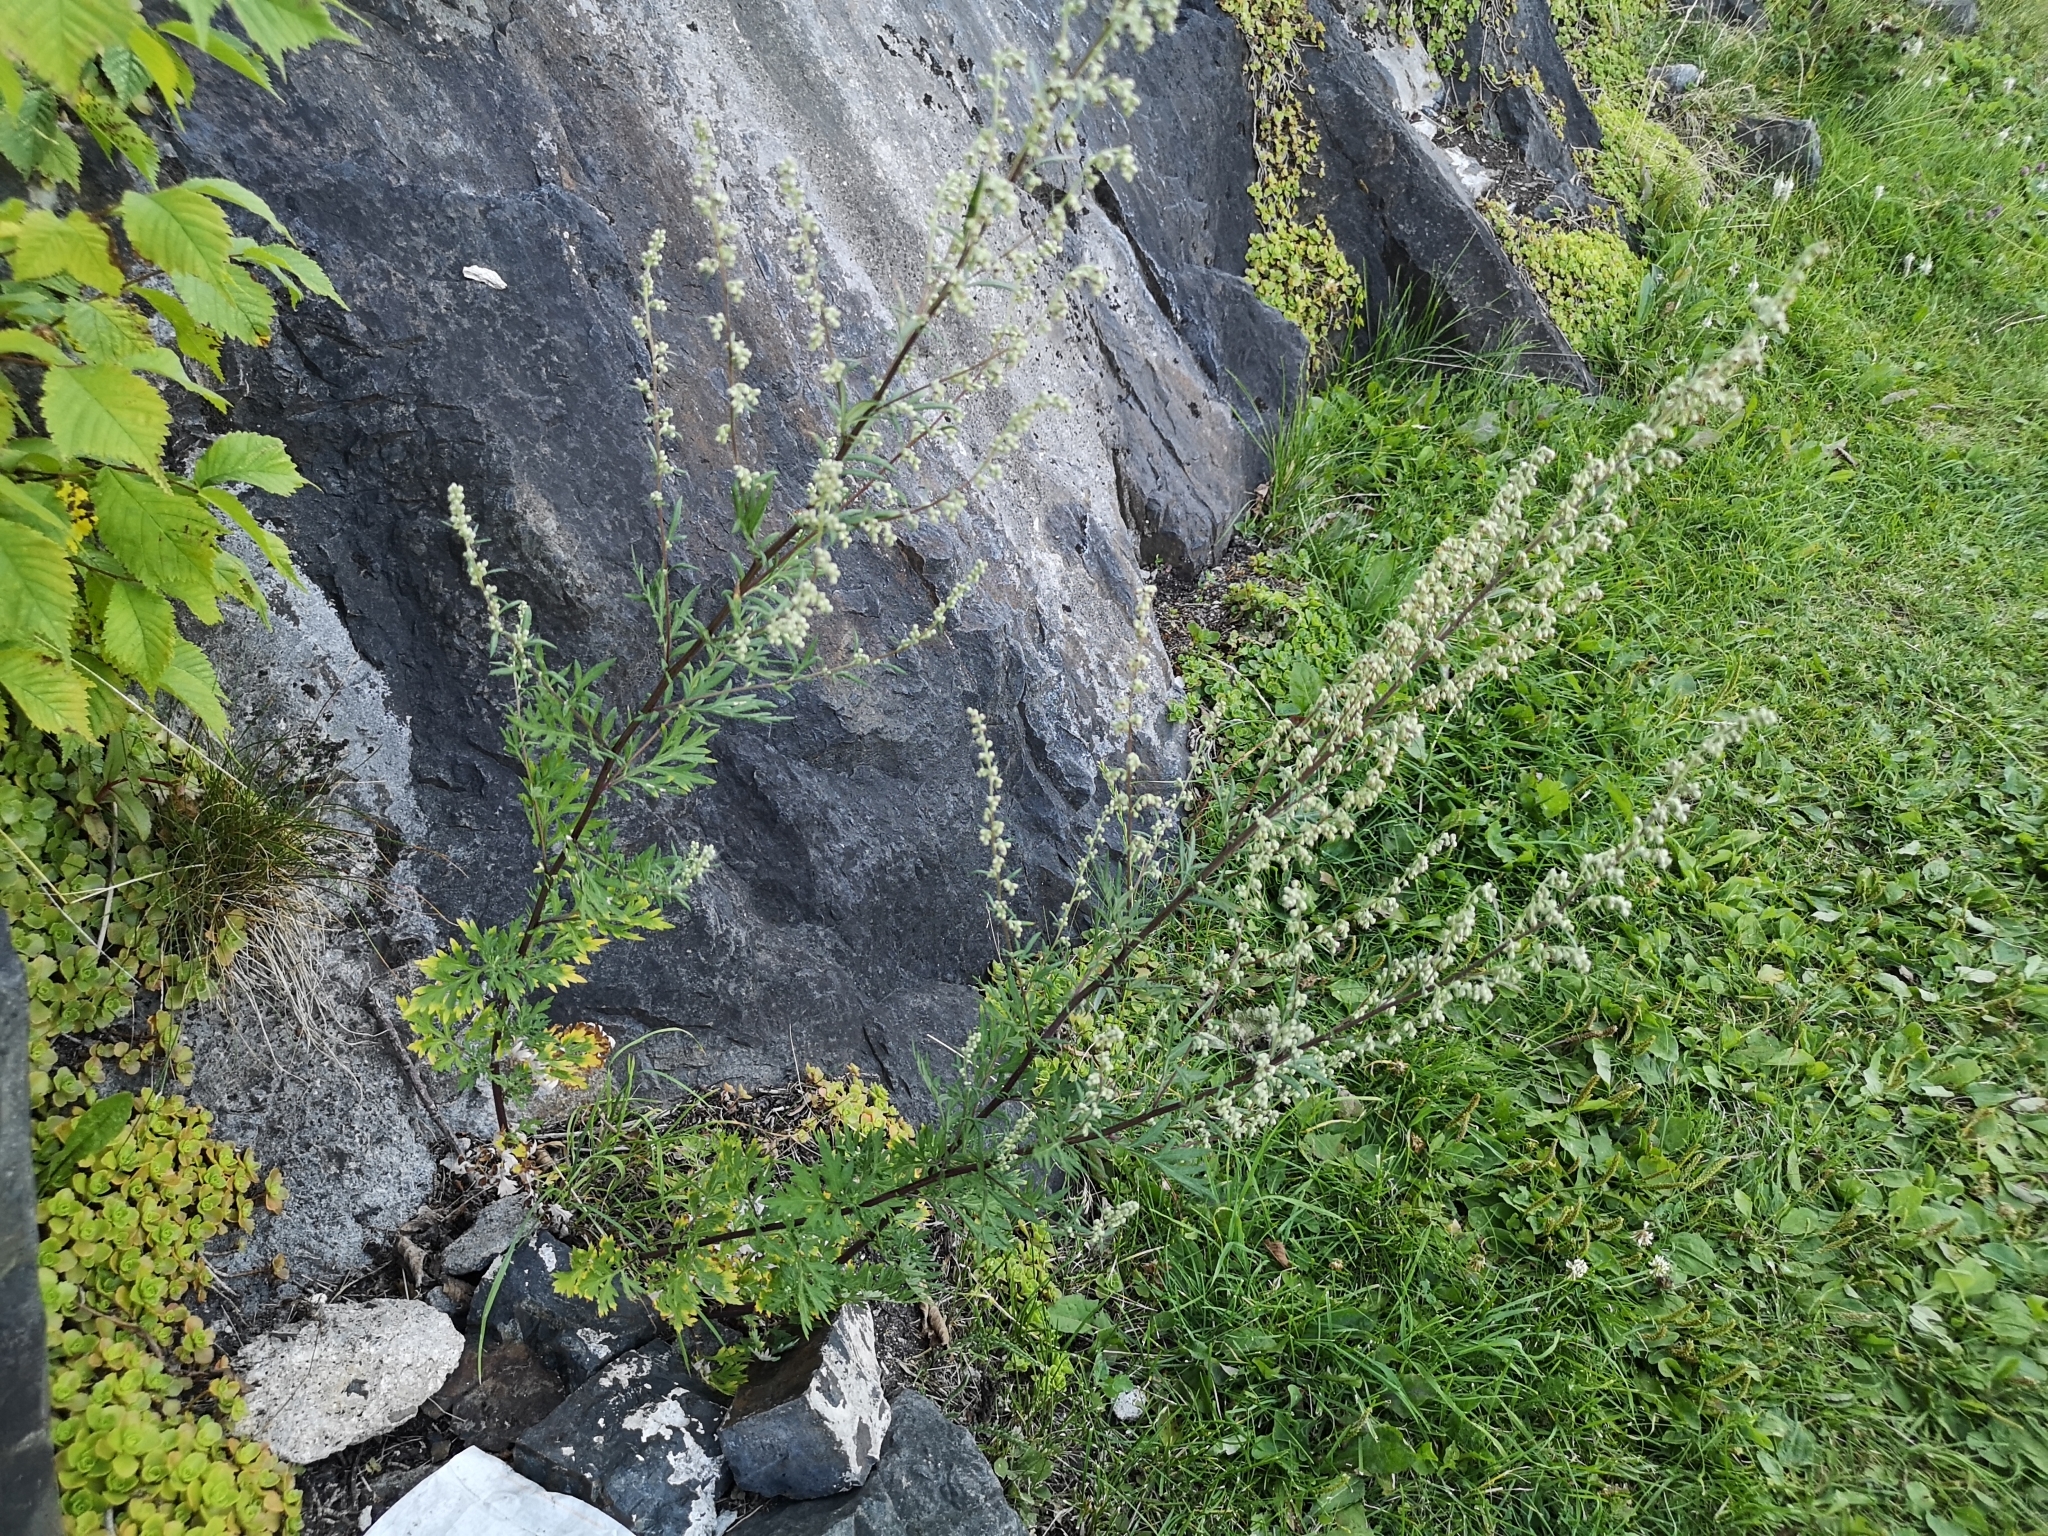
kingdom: Plantae
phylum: Tracheophyta
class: Magnoliopsida
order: Asterales
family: Asteraceae
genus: Artemisia
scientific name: Artemisia vulgaris
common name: Mugwort
